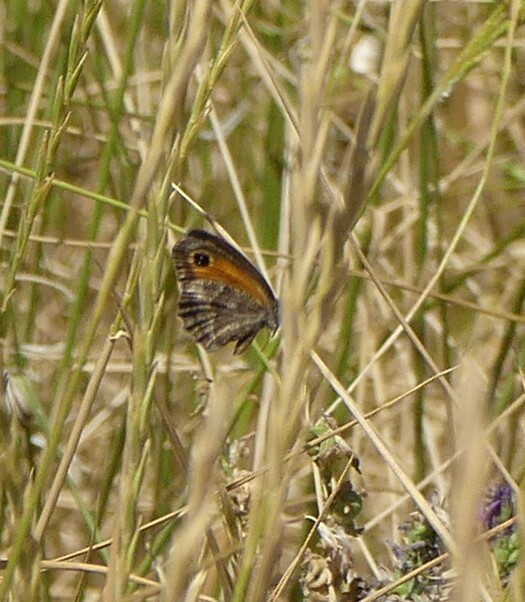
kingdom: Animalia
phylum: Arthropoda
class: Insecta
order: Lepidoptera
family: Nymphalidae
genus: Pyronia
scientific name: Pyronia cecilia
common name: Southern gatekeeper
